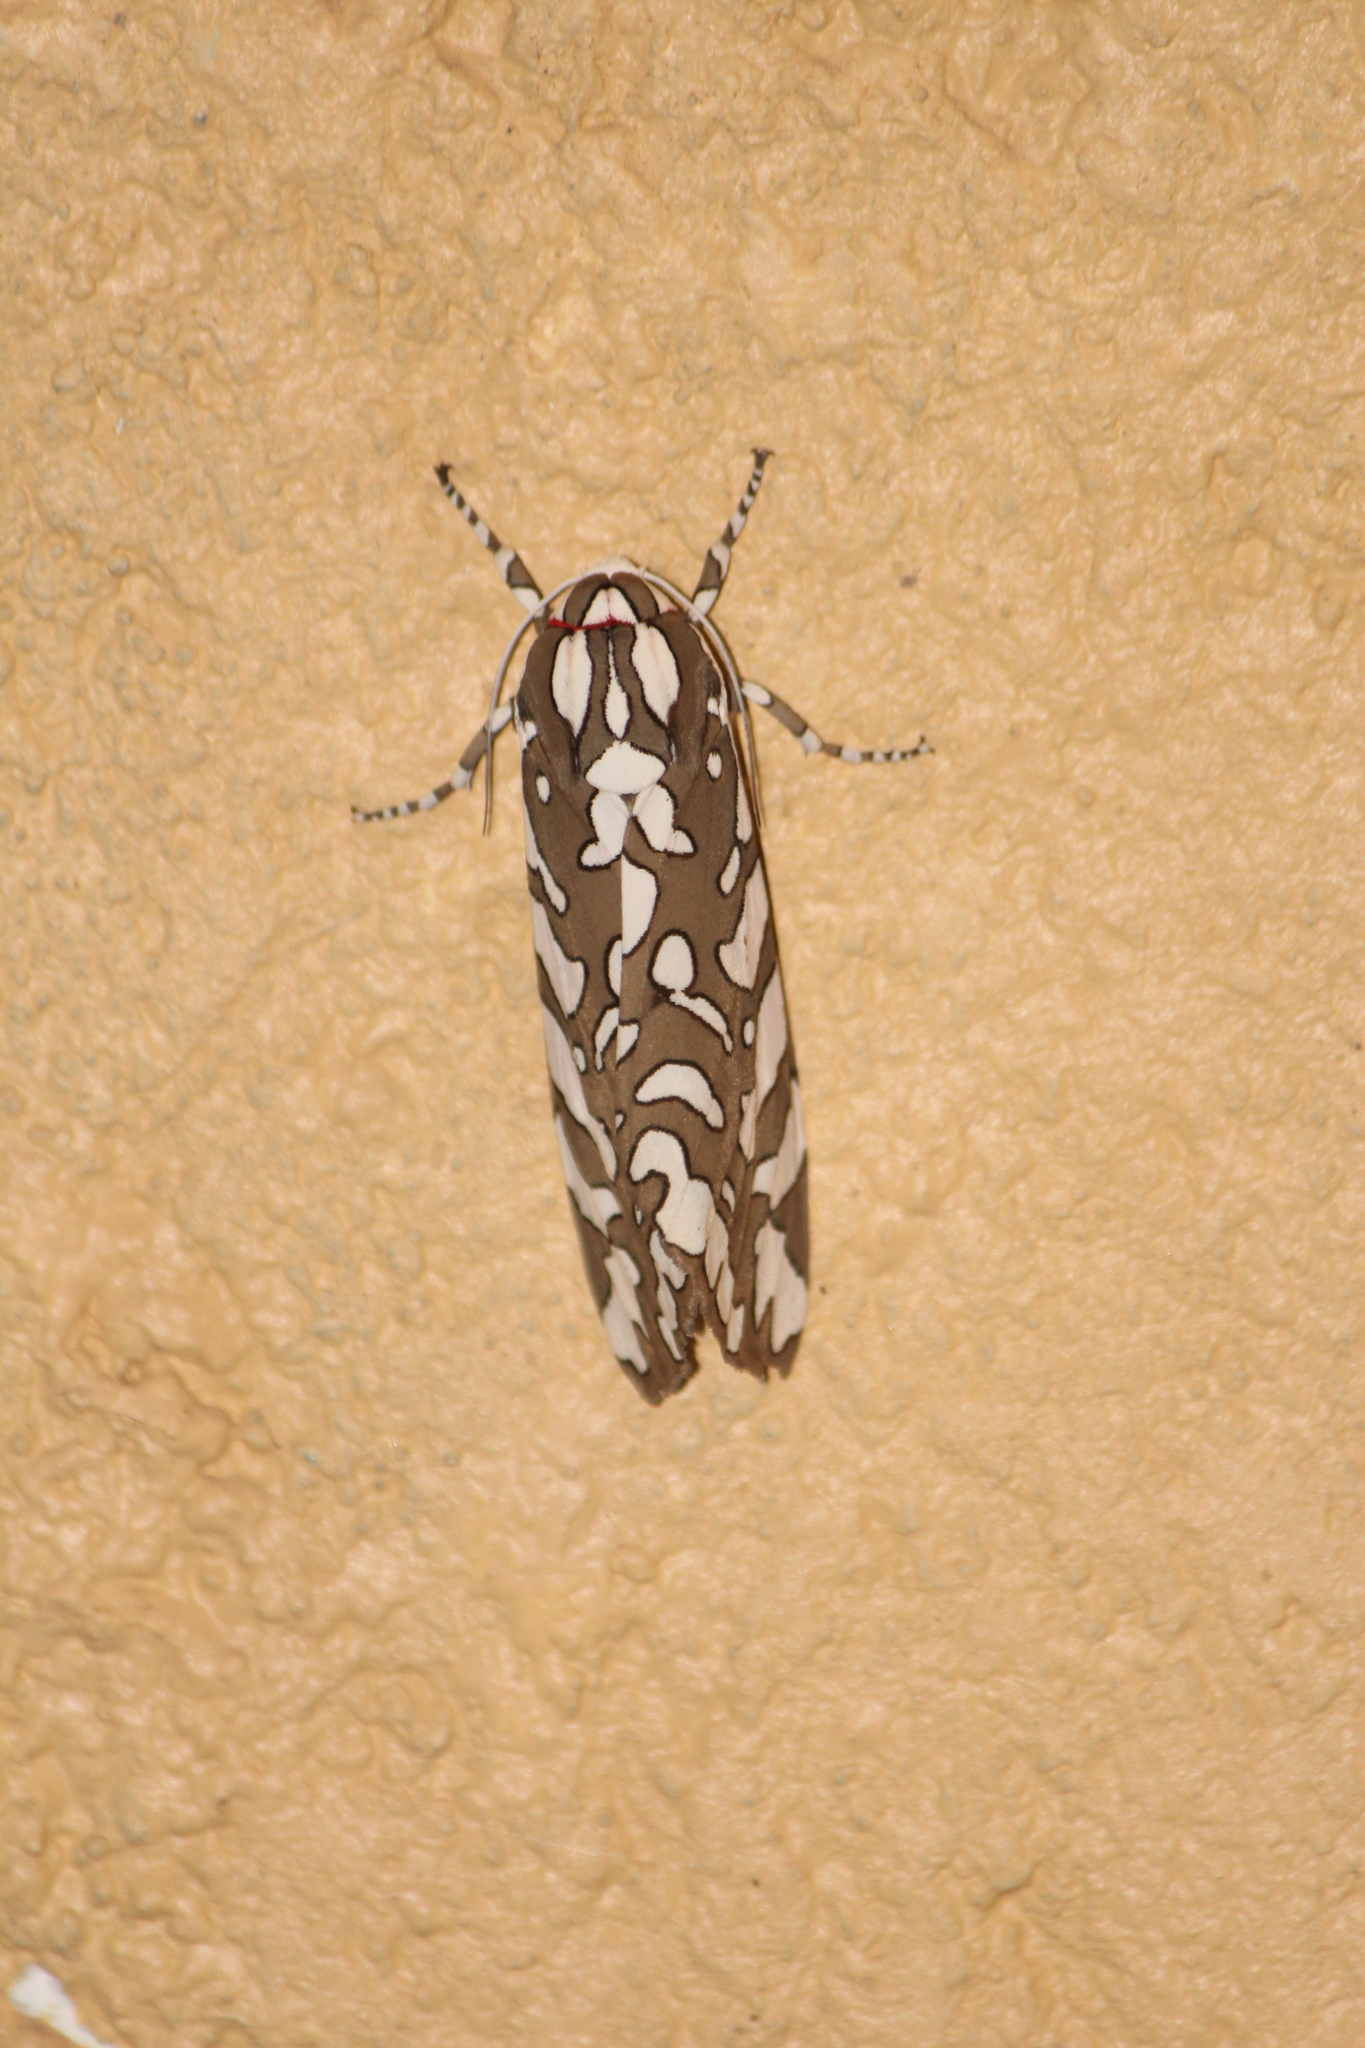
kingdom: Animalia
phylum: Arthropoda
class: Insecta
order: Lepidoptera
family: Erebidae
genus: Arachnis
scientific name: Arachnis dilecta
